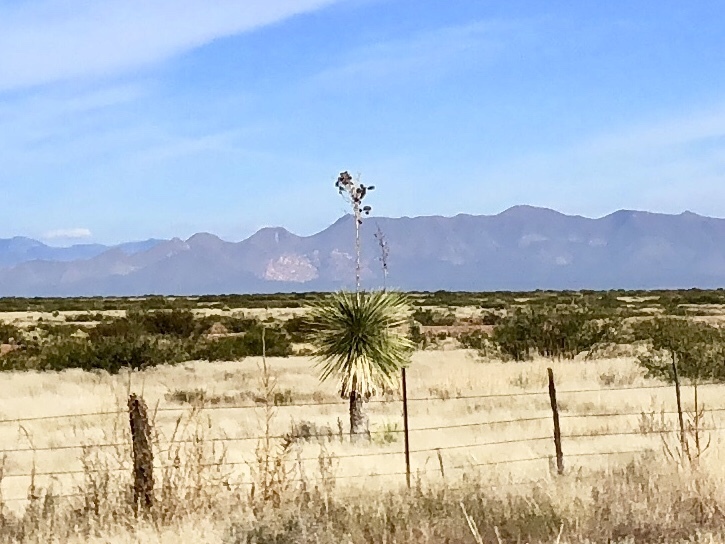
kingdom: Plantae
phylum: Tracheophyta
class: Liliopsida
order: Asparagales
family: Asparagaceae
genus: Yucca
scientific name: Yucca elata
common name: Palmella
